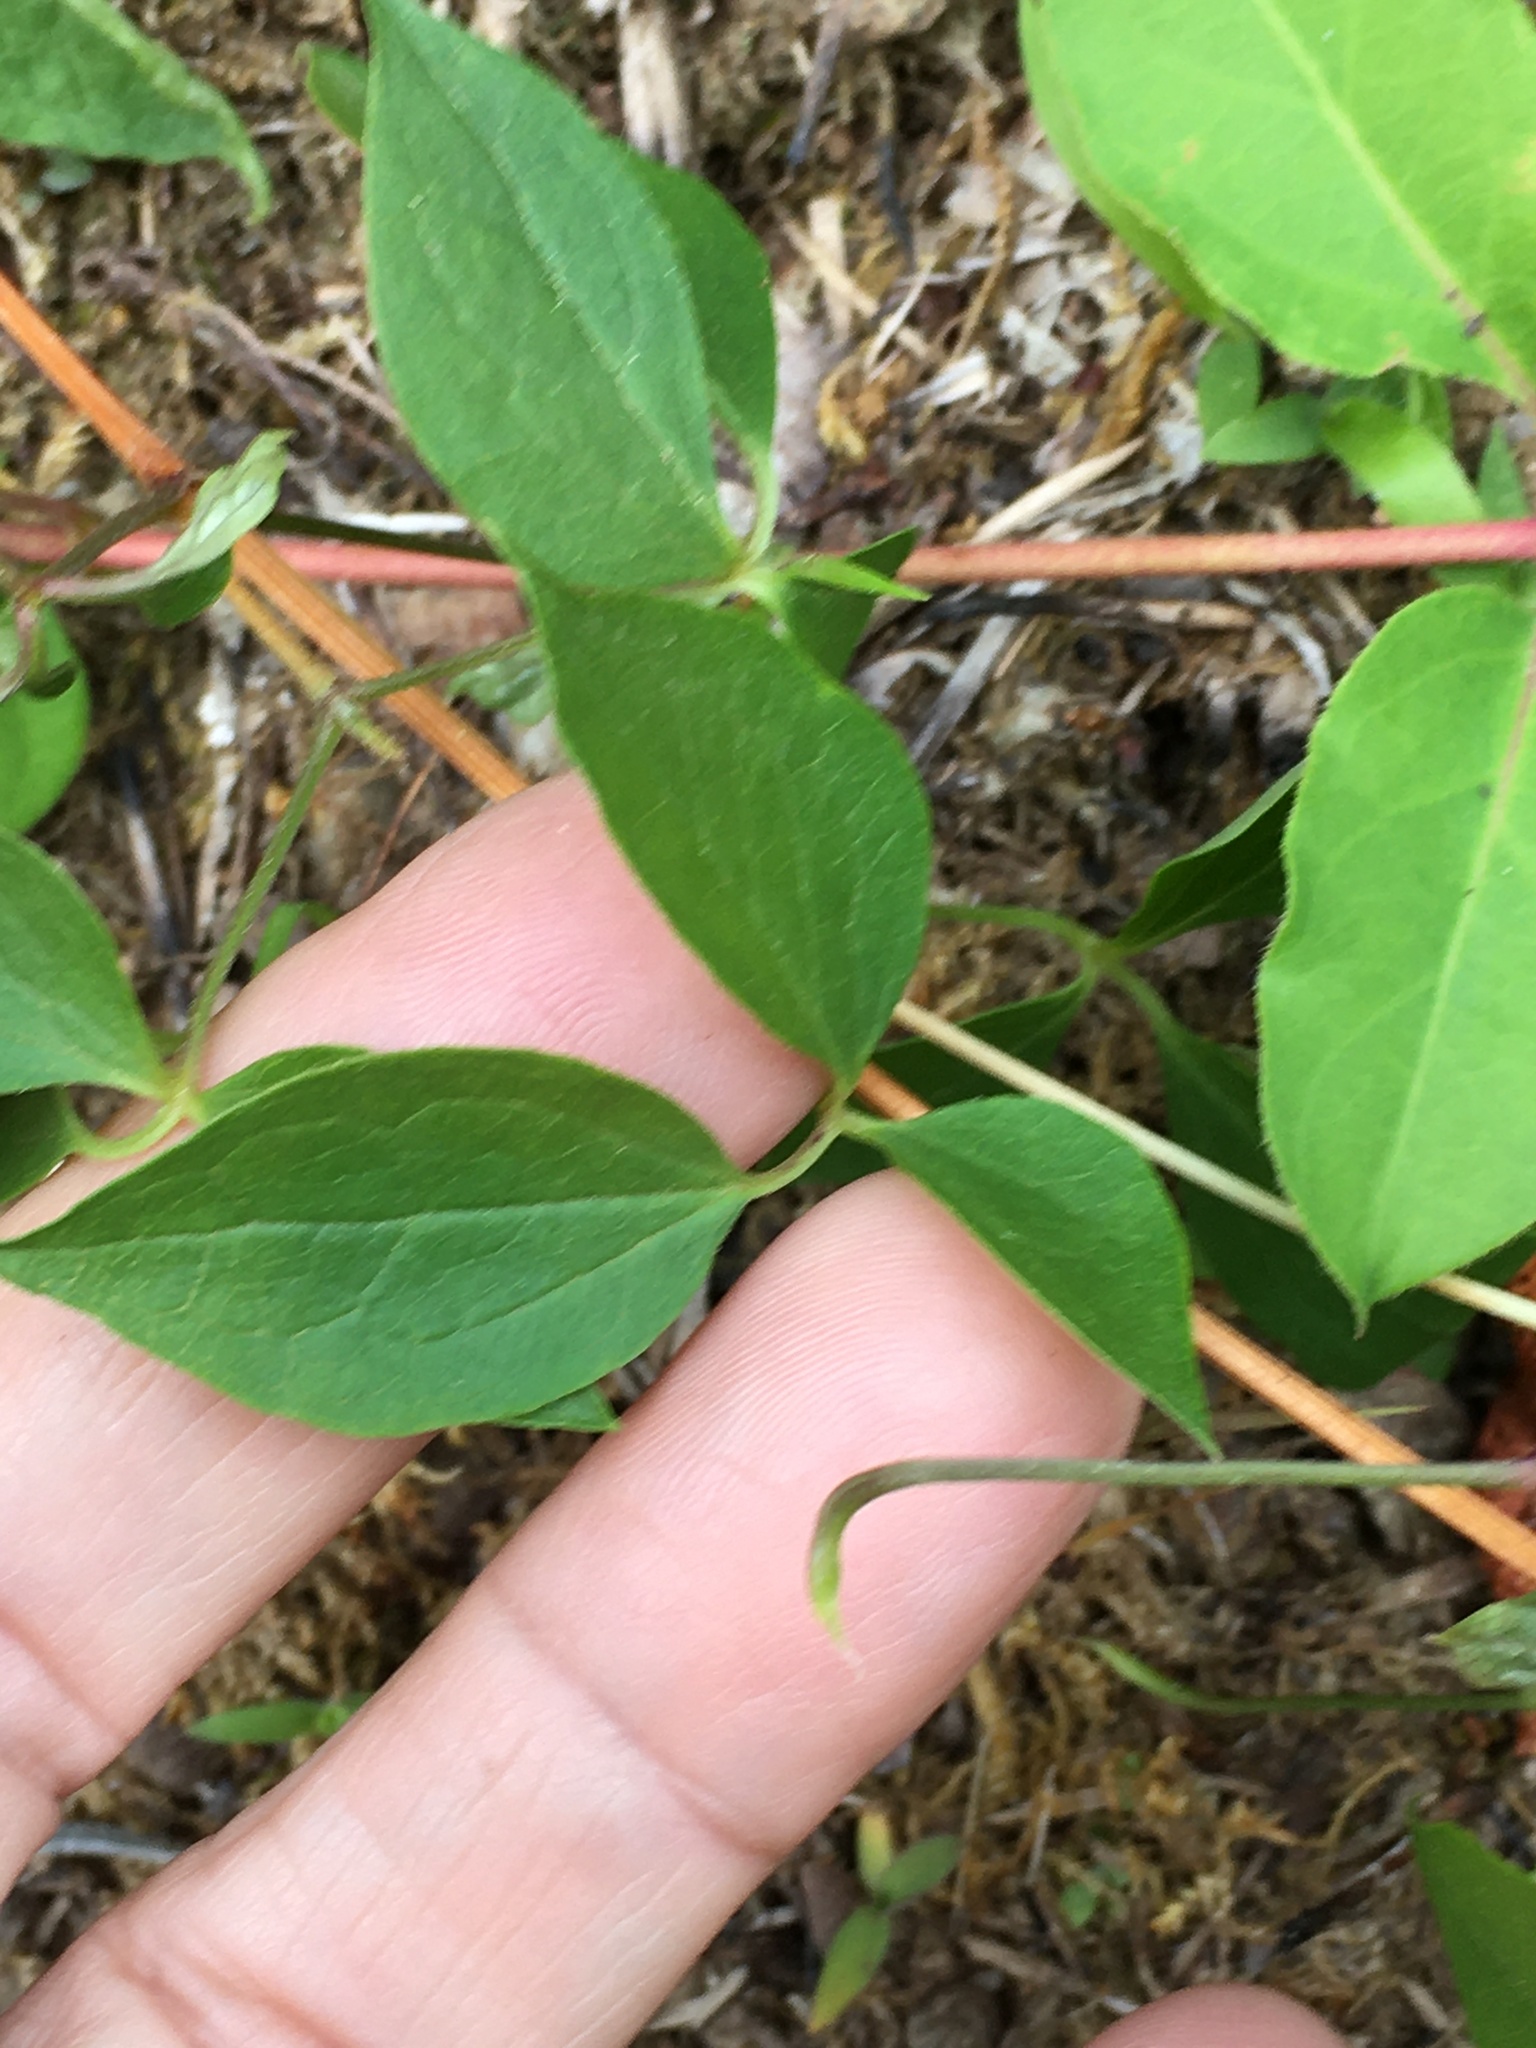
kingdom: Plantae
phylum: Tracheophyta
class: Magnoliopsida
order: Ranunculales
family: Ranunculaceae
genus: Clematis
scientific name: Clematis viorna
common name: Leather-flower
